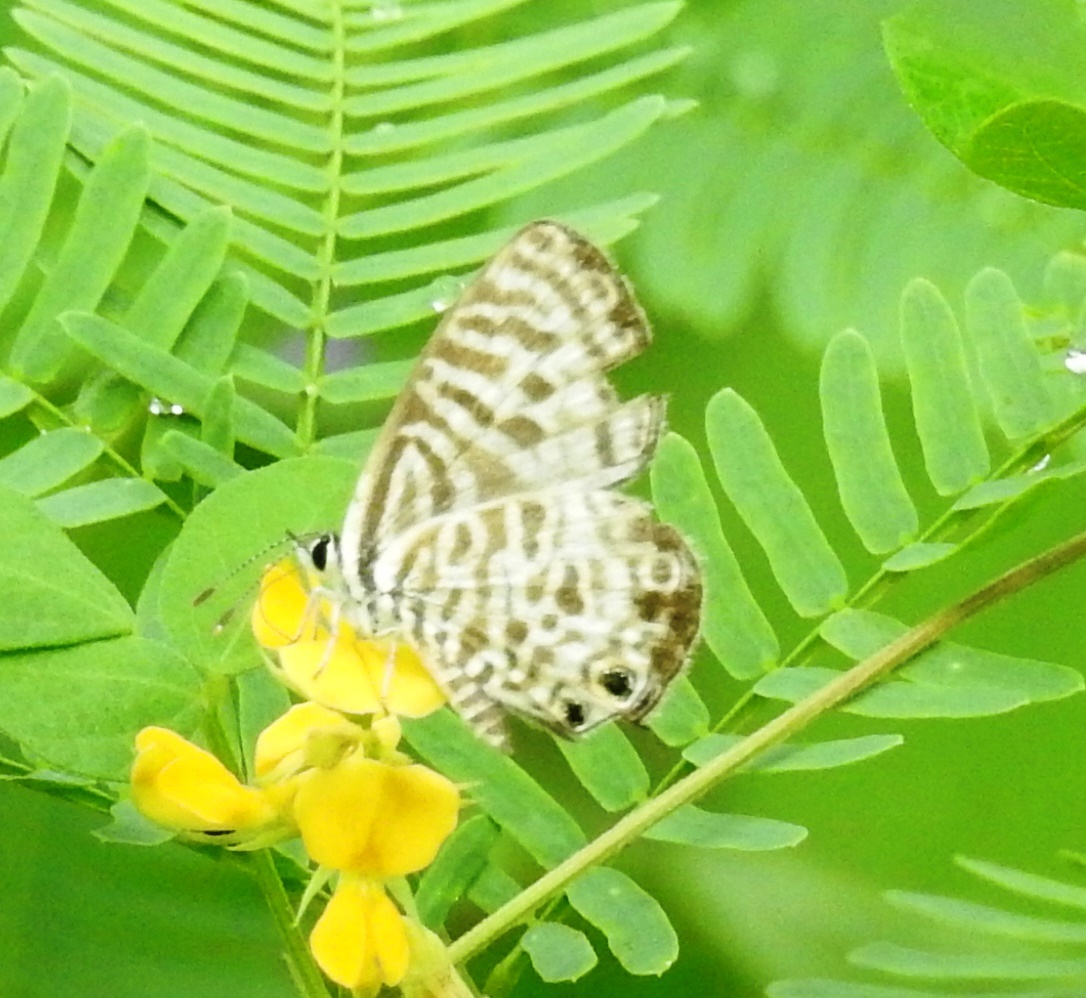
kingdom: Animalia
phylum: Arthropoda
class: Insecta
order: Lepidoptera
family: Lycaenidae
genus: Leptotes
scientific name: Leptotes plinius
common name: Zebra blue
